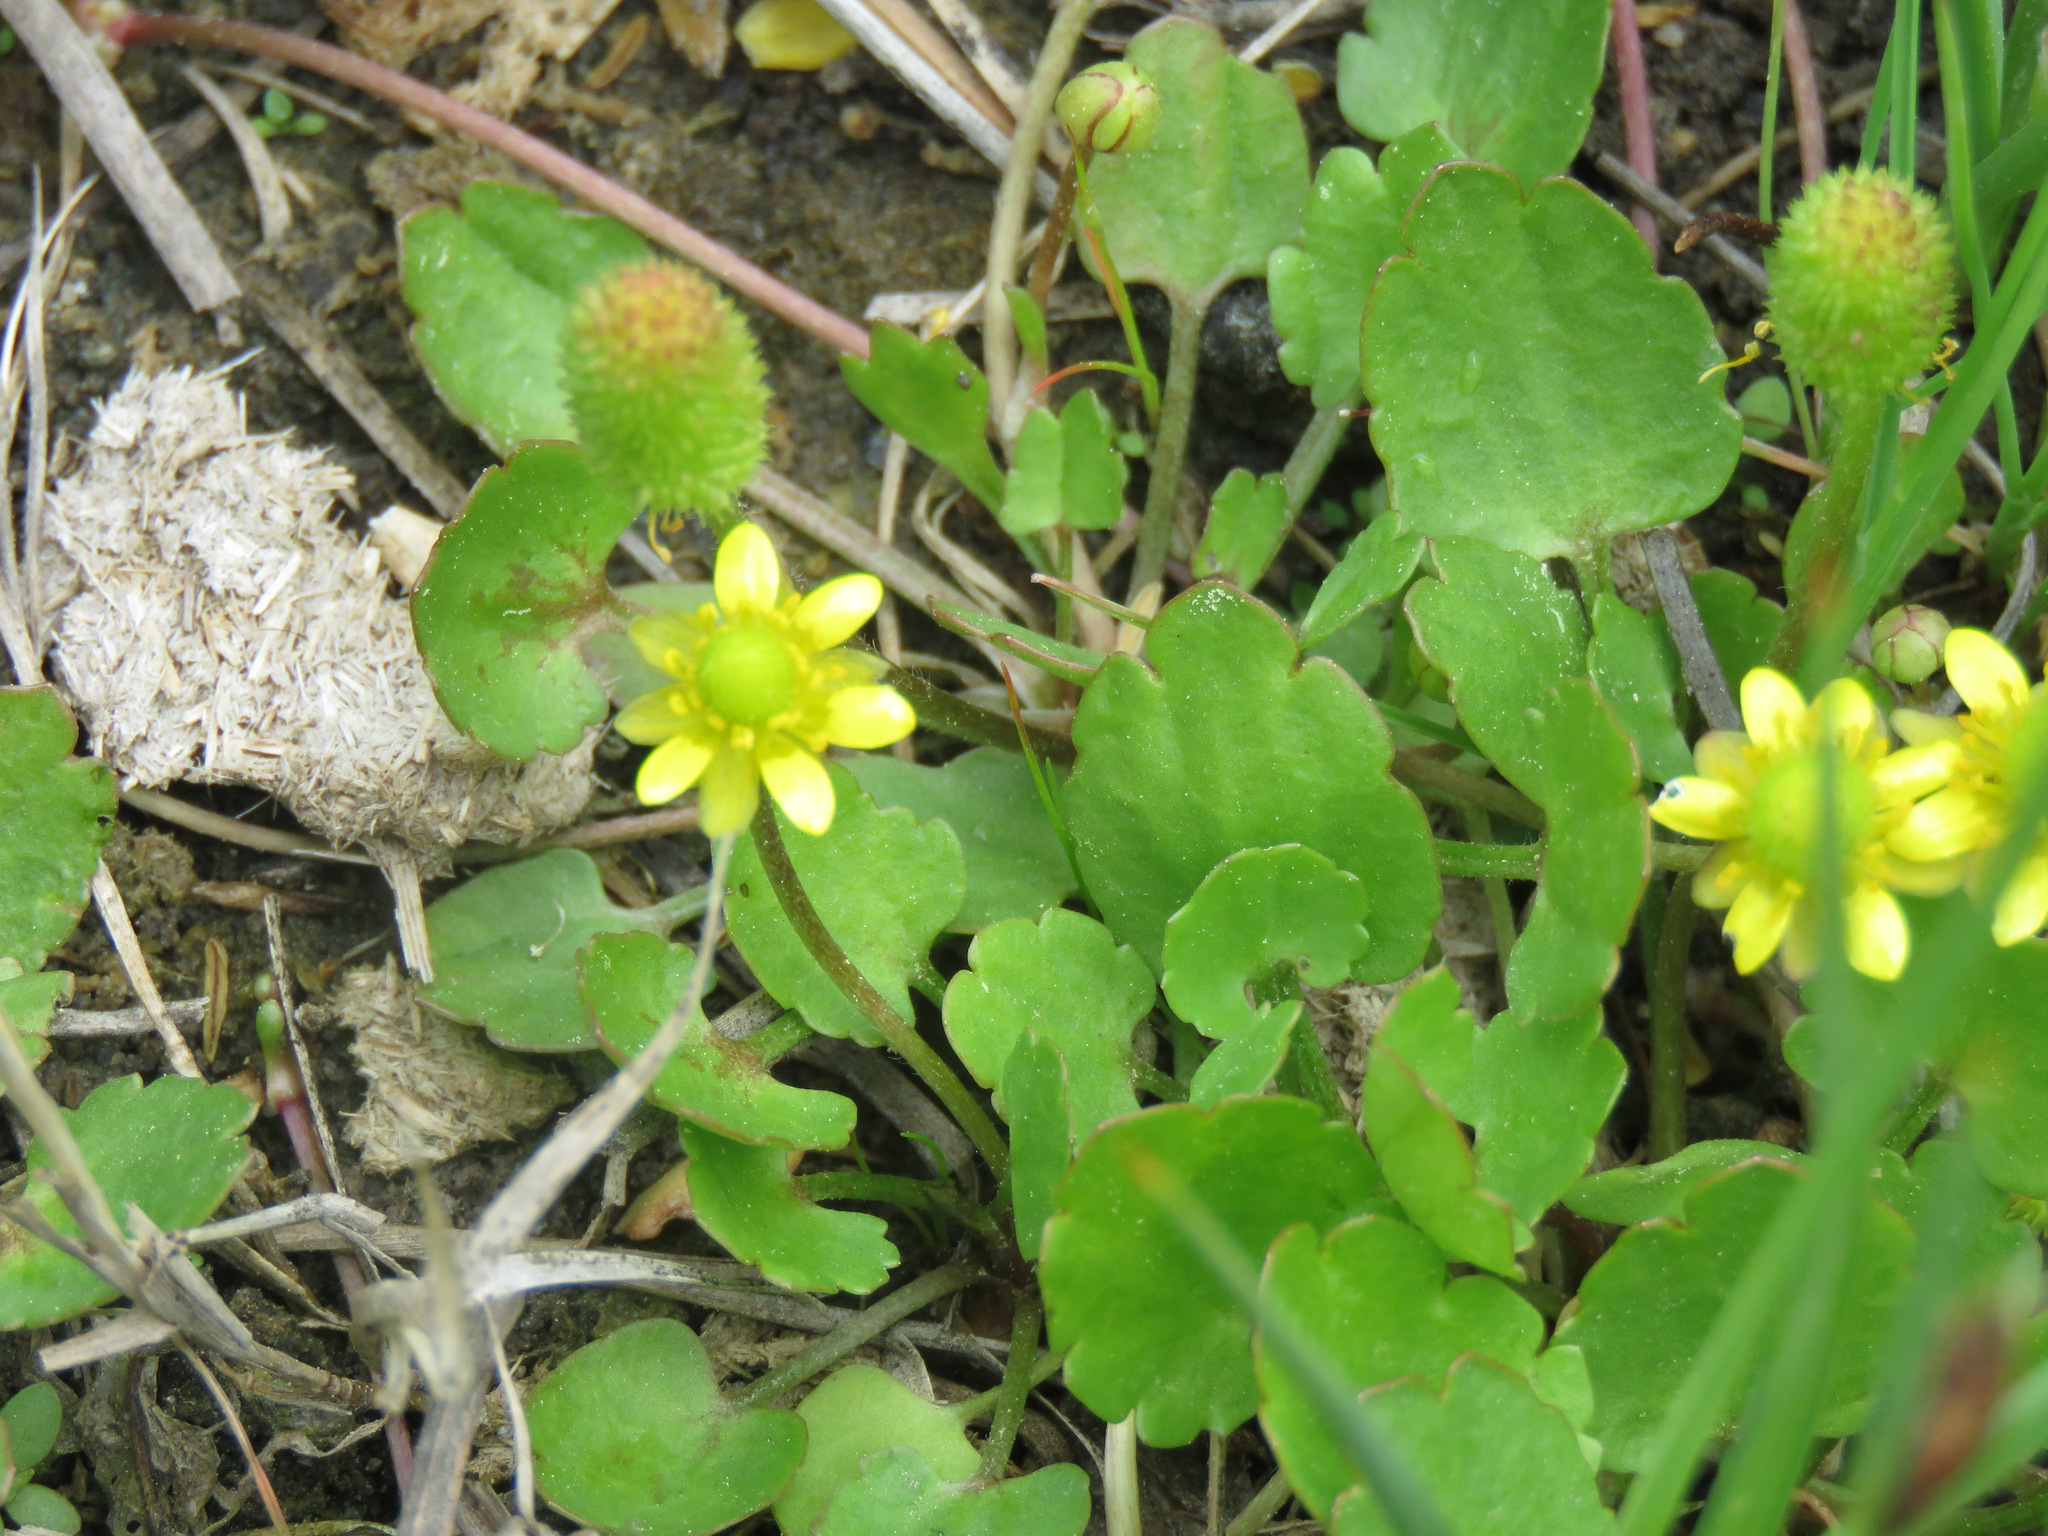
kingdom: Plantae
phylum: Tracheophyta
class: Magnoliopsida
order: Ranunculales
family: Ranunculaceae
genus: Halerpestes
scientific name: Halerpestes cymbalaria
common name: Seaside crowfoot
